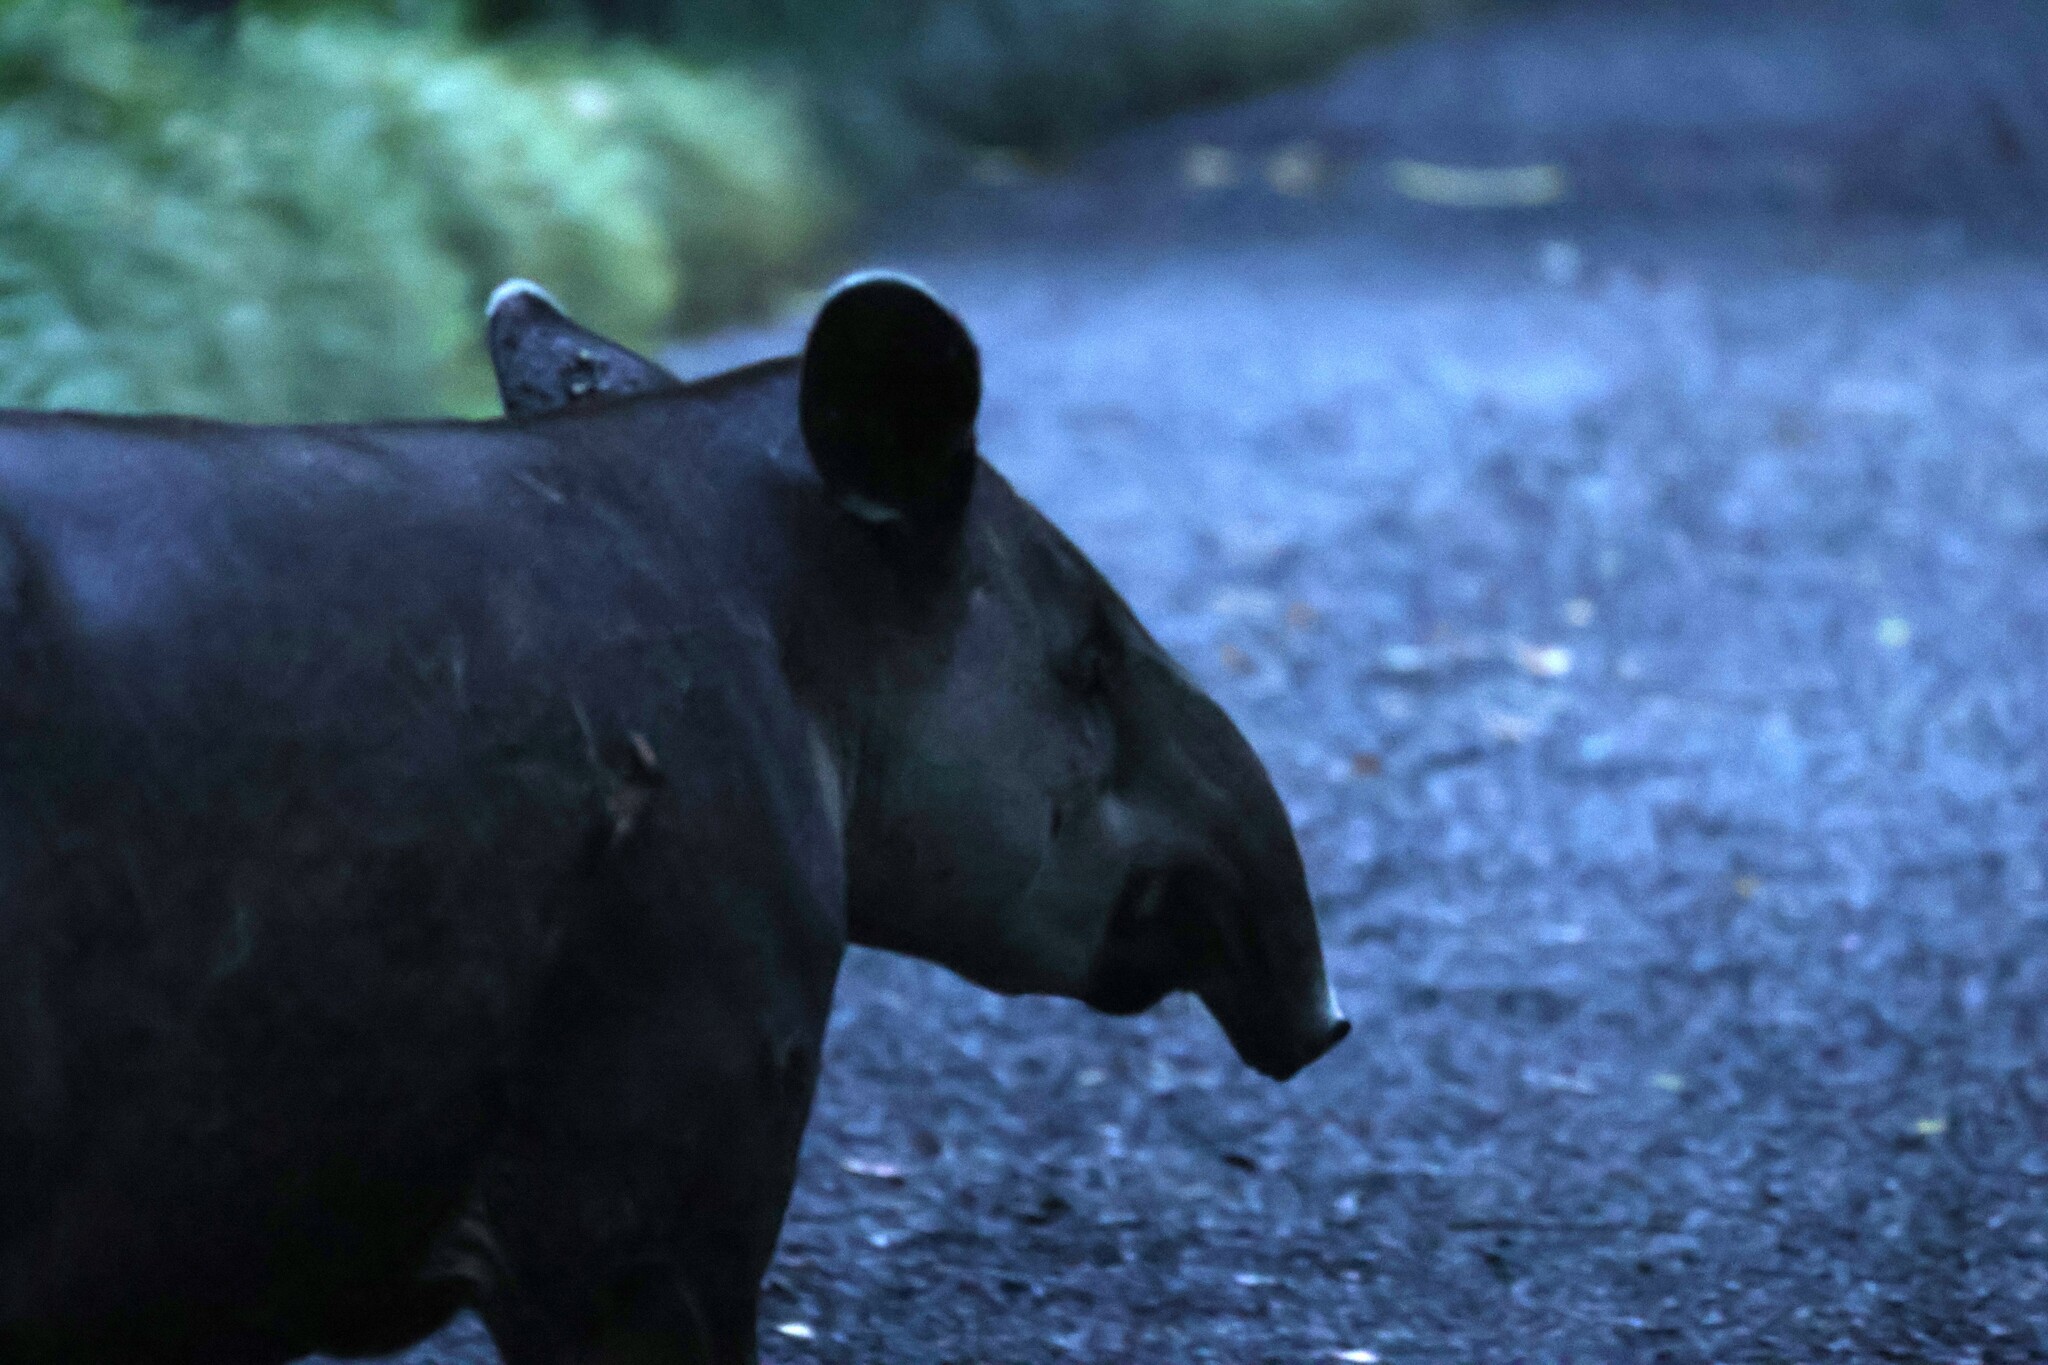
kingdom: Animalia
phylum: Chordata
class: Mammalia
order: Perissodactyla
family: Tapiridae
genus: Tapirella
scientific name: Tapirella bairdii
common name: Baird's tapir
